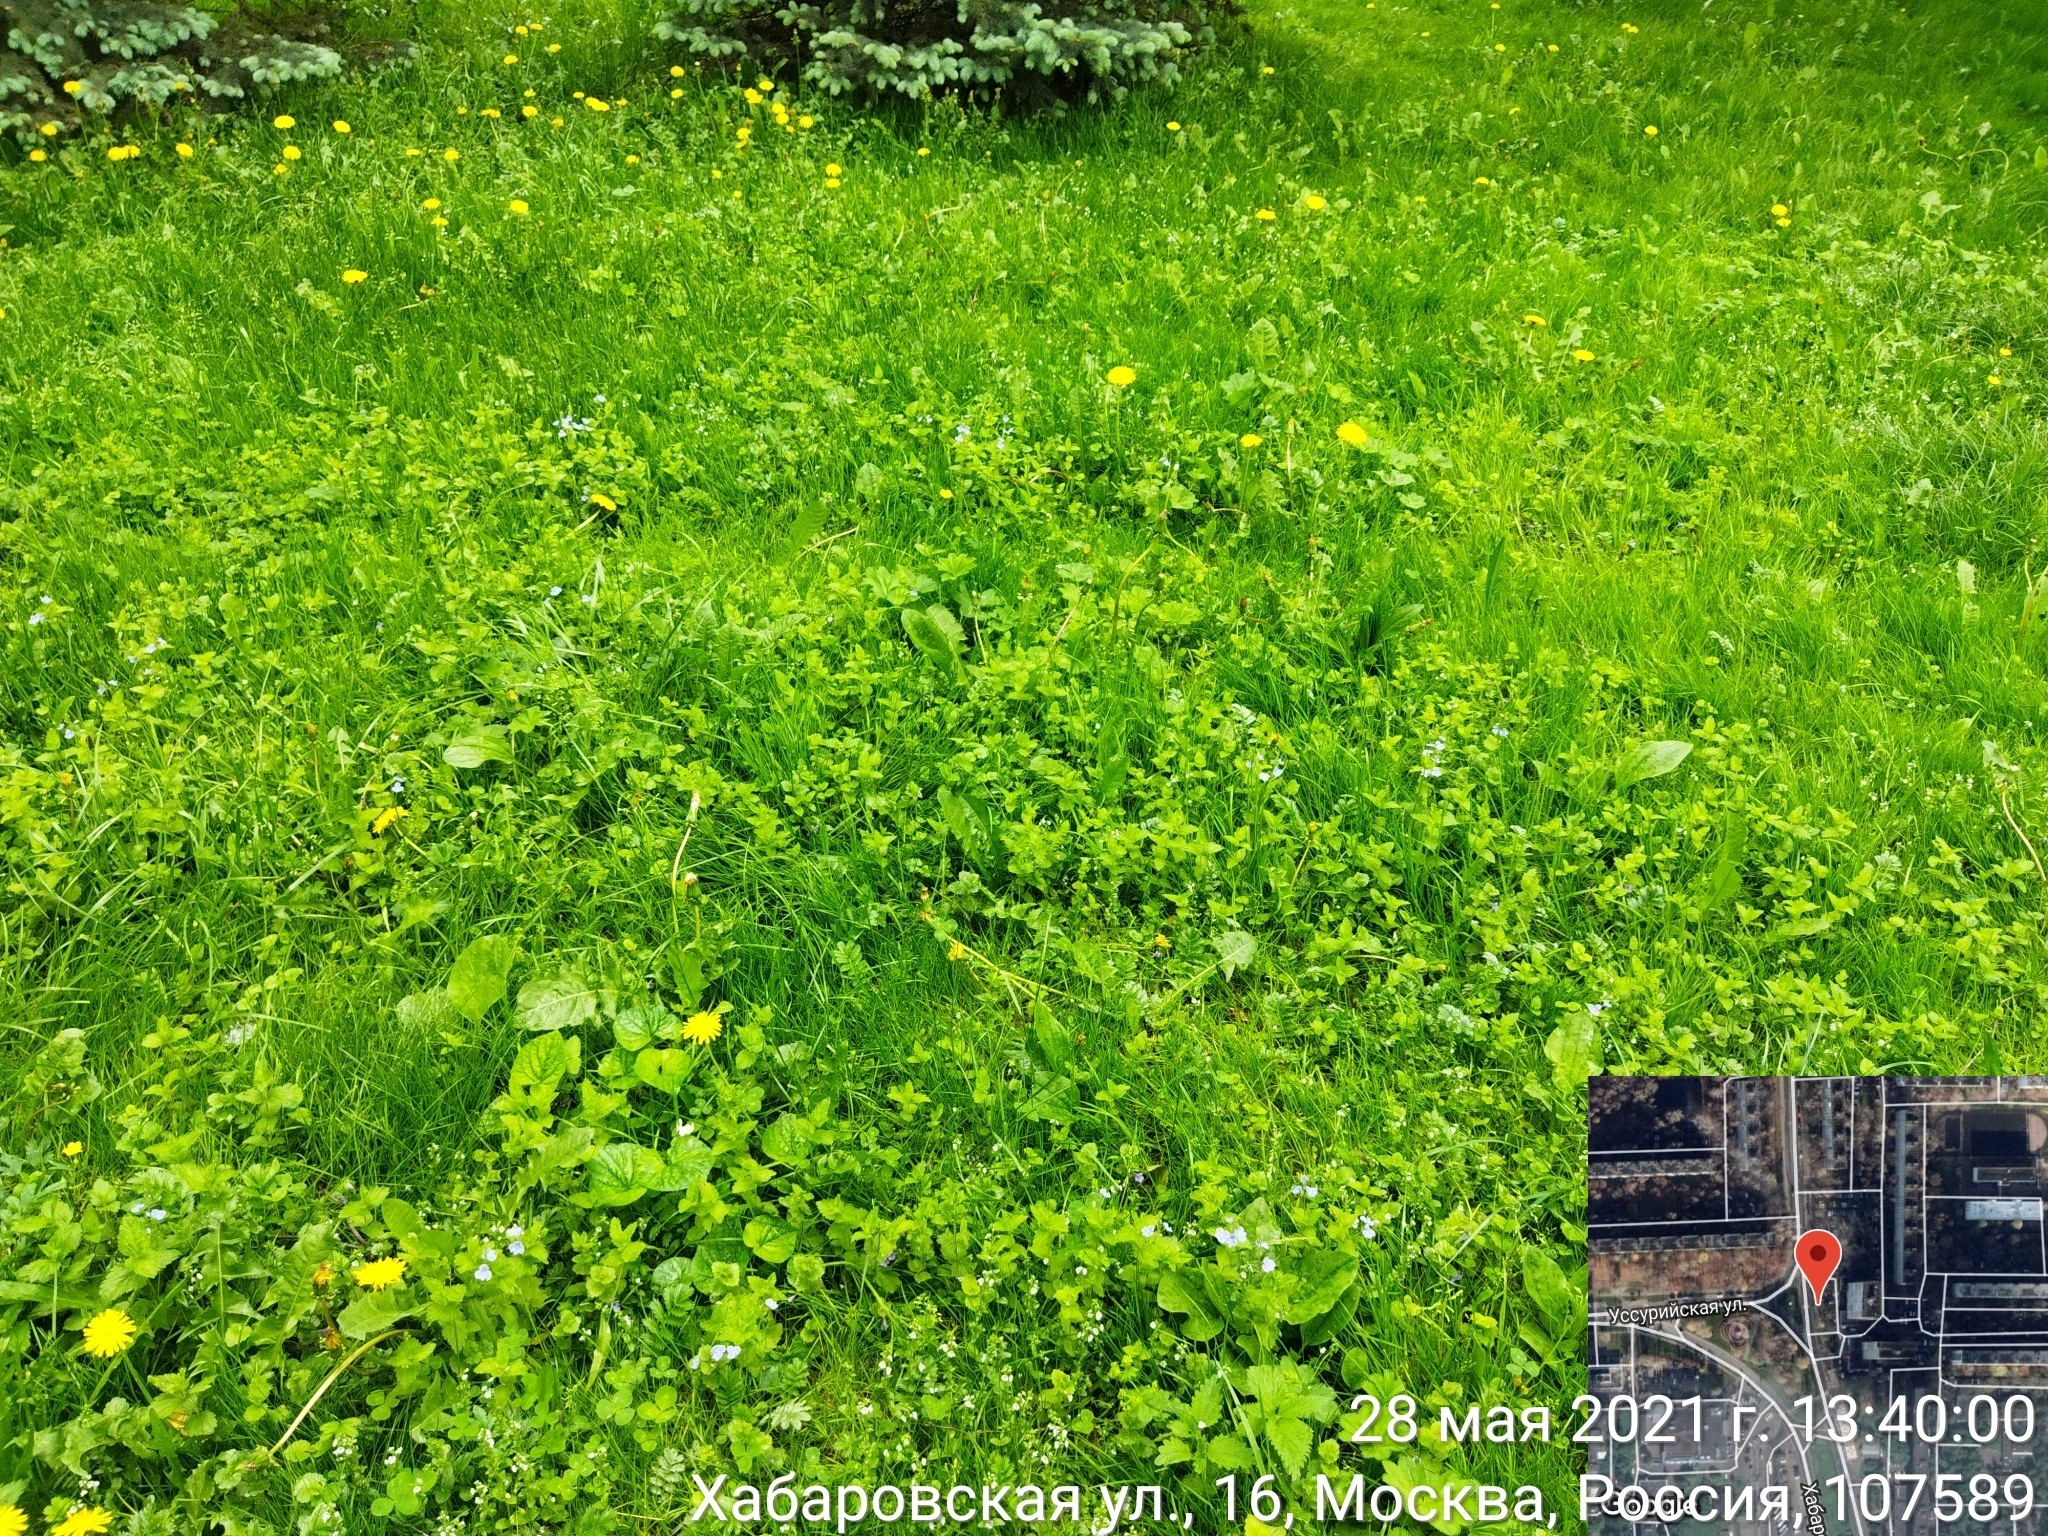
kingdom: Plantae
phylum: Tracheophyta
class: Magnoliopsida
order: Lamiales
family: Plantaginaceae
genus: Veronica
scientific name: Veronica chamaedrys
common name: Germander speedwell
